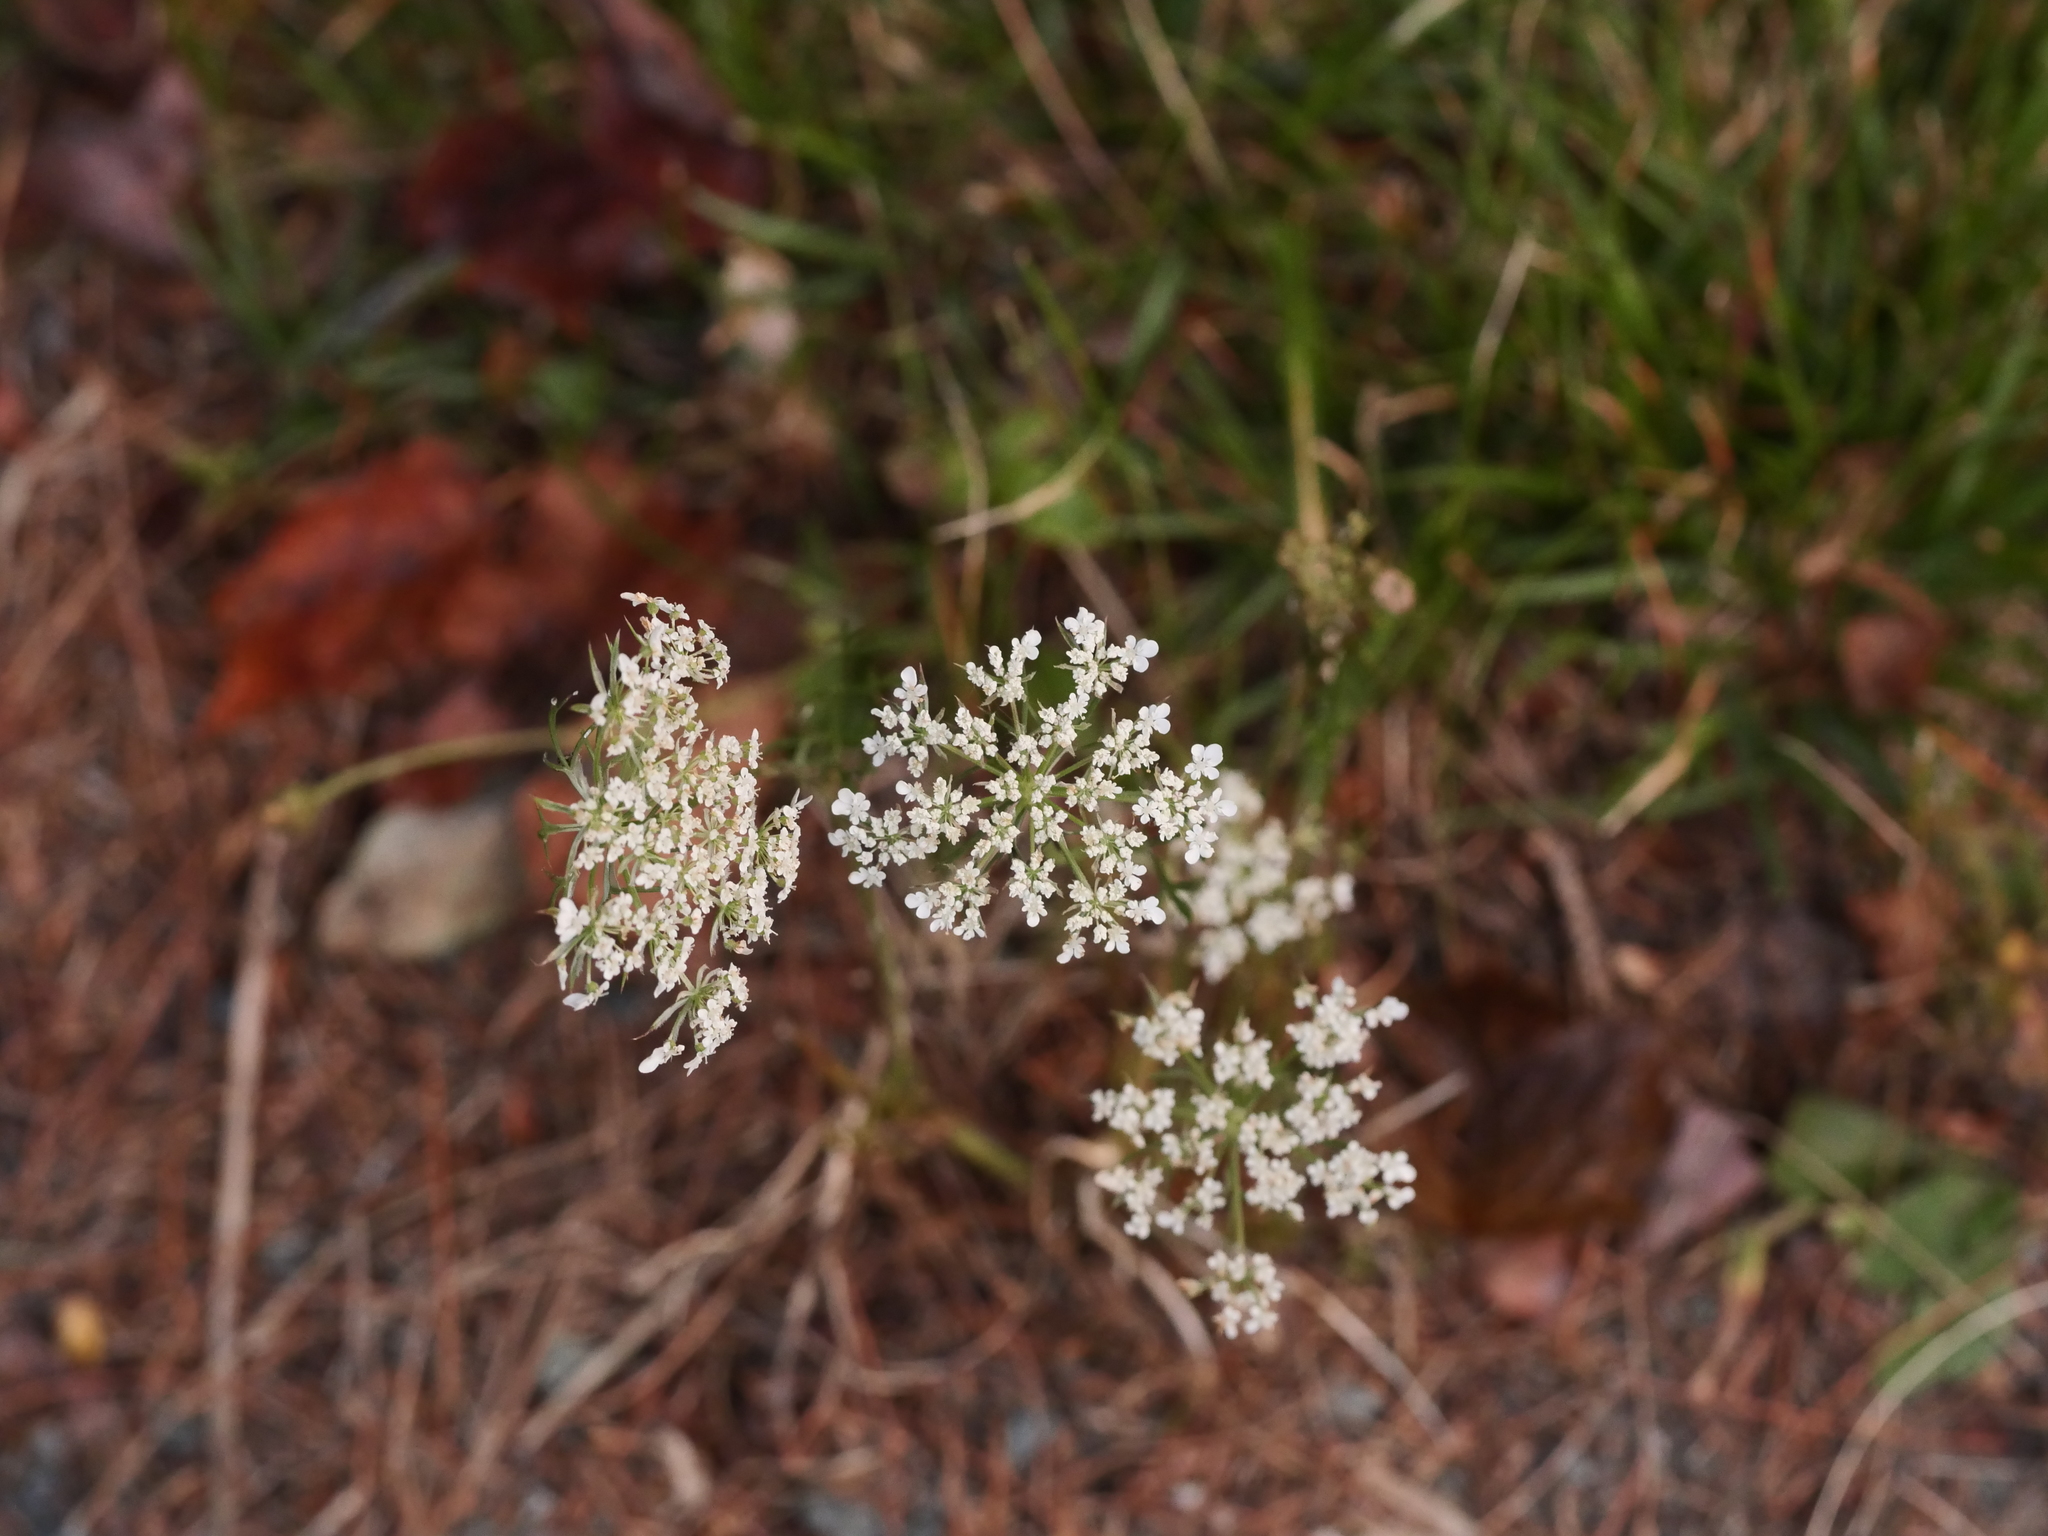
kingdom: Plantae
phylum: Tracheophyta
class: Magnoliopsida
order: Apiales
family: Apiaceae
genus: Daucus
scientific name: Daucus carota
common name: Wild carrot
